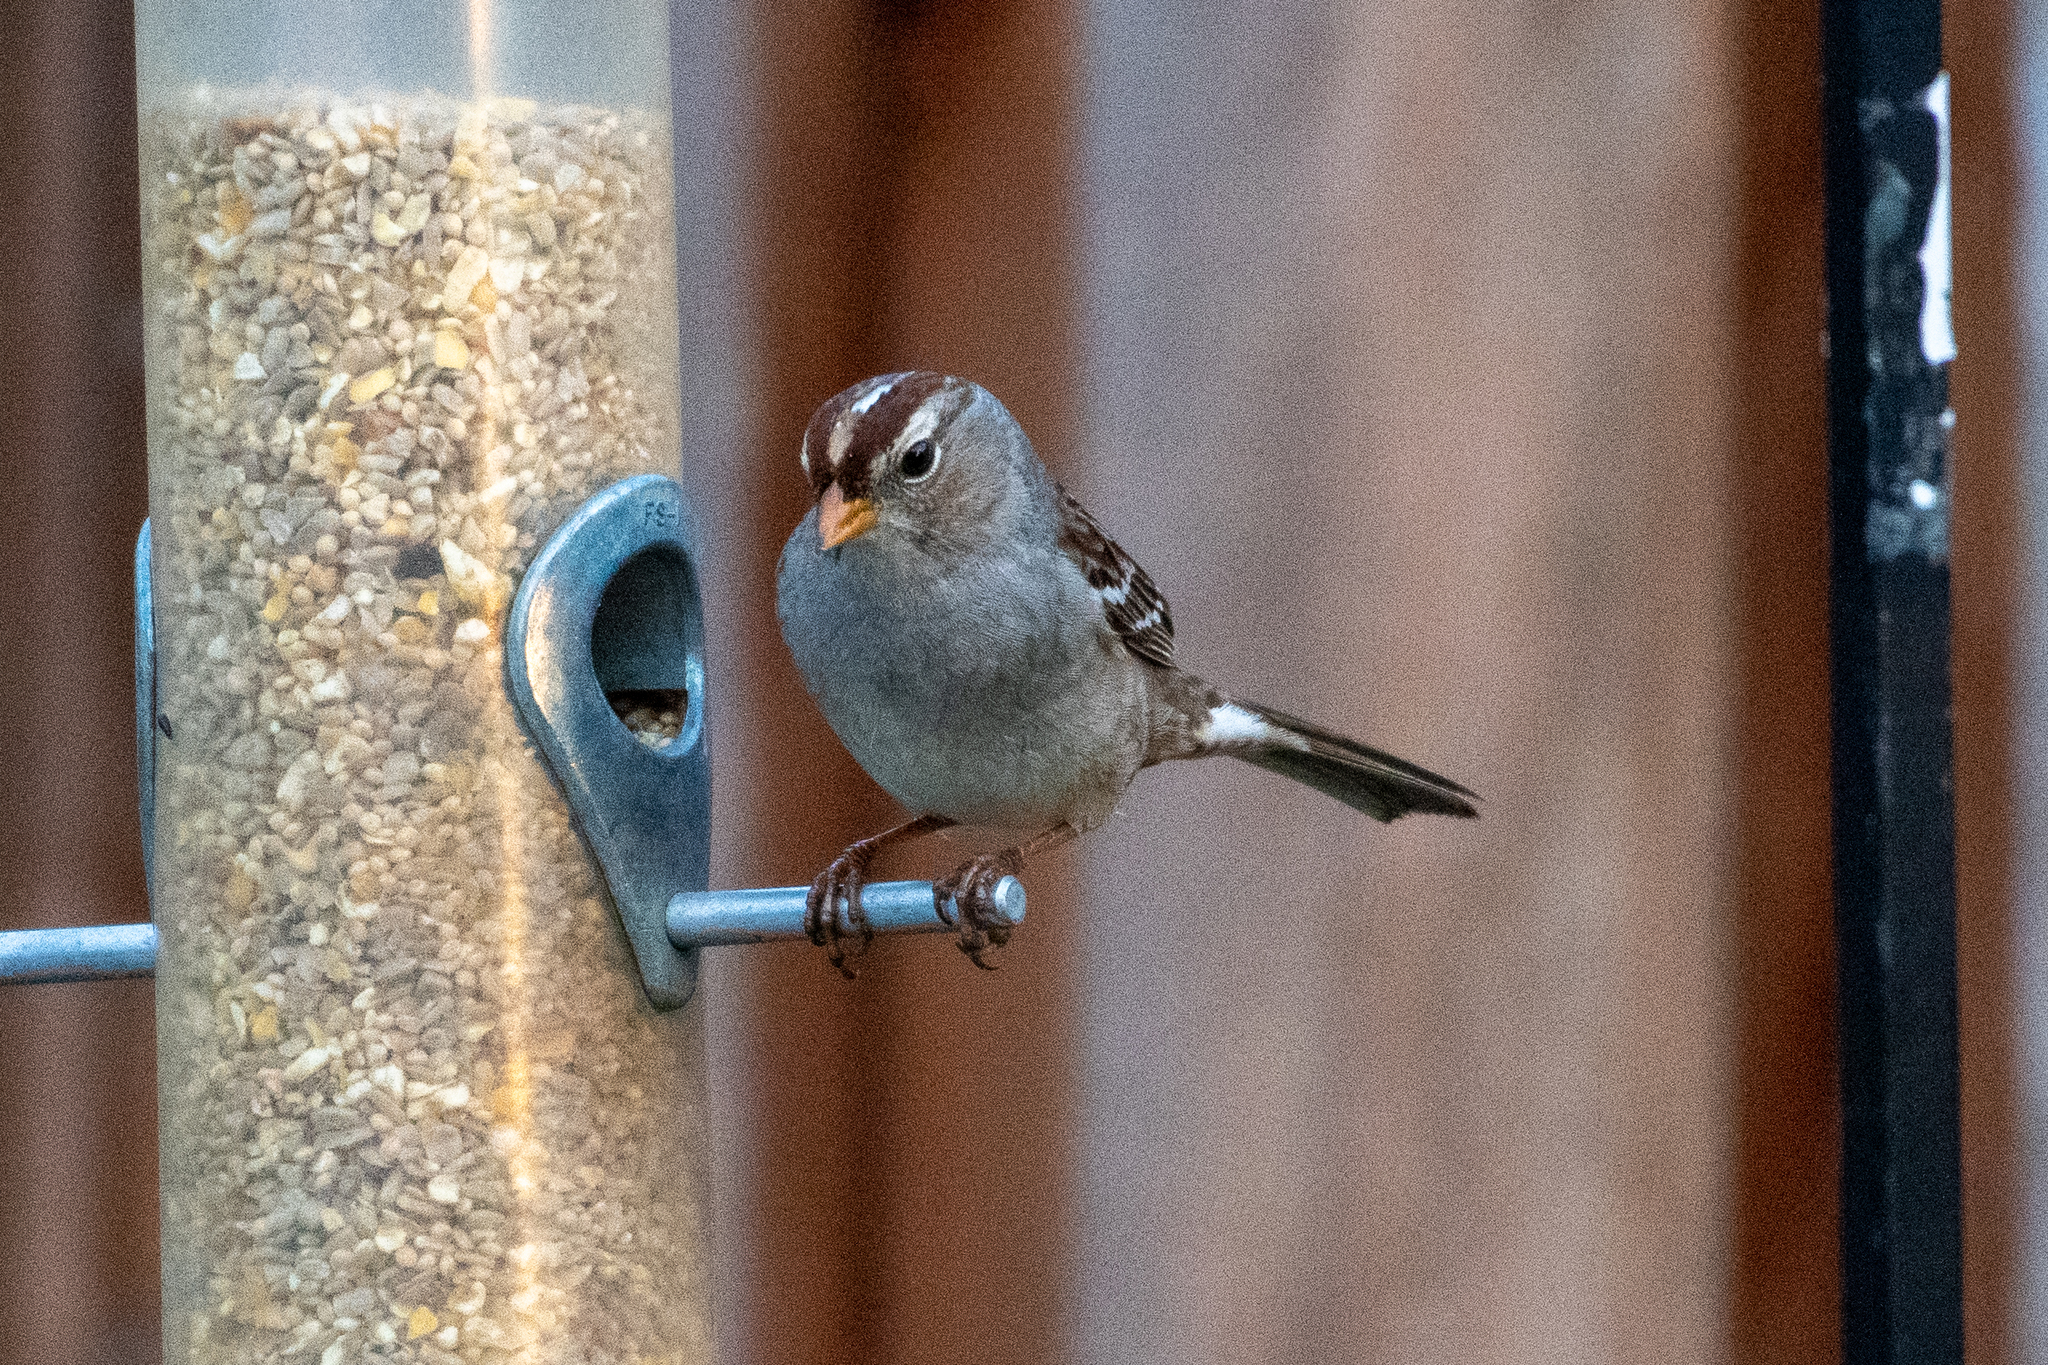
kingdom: Animalia
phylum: Chordata
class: Aves
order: Passeriformes
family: Passerellidae
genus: Zonotrichia
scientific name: Zonotrichia leucophrys
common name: White-crowned sparrow
